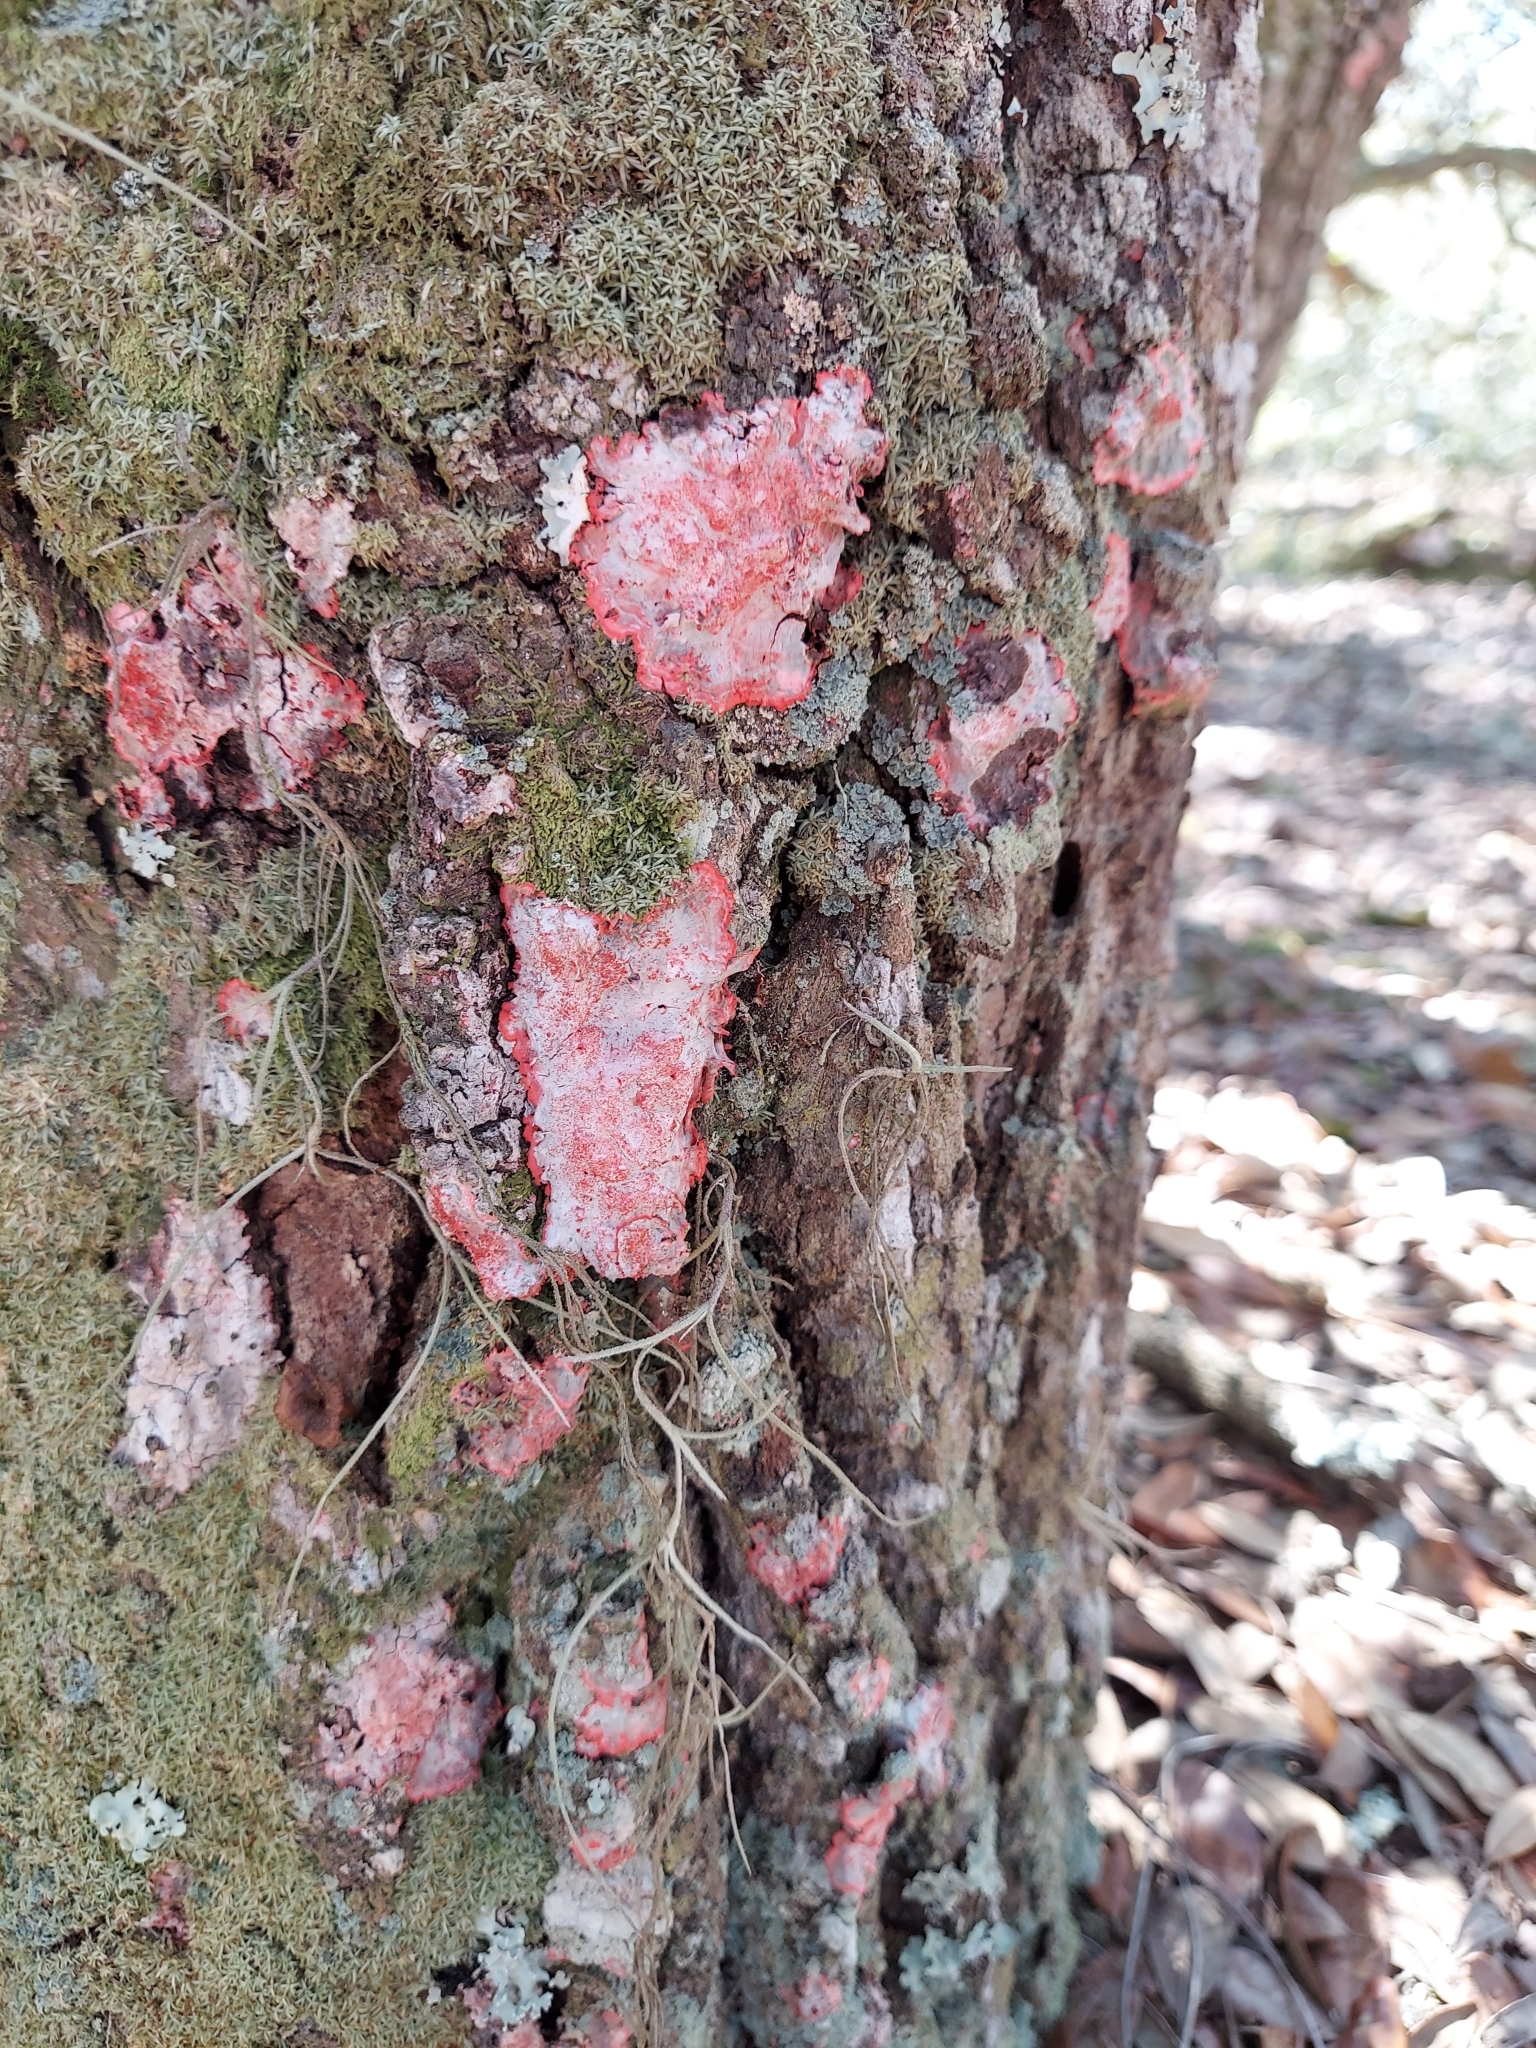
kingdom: Fungi
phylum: Ascomycota
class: Arthoniomycetes
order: Arthoniales
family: Arthoniaceae
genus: Herpothallon
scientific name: Herpothallon rubrocinctum
